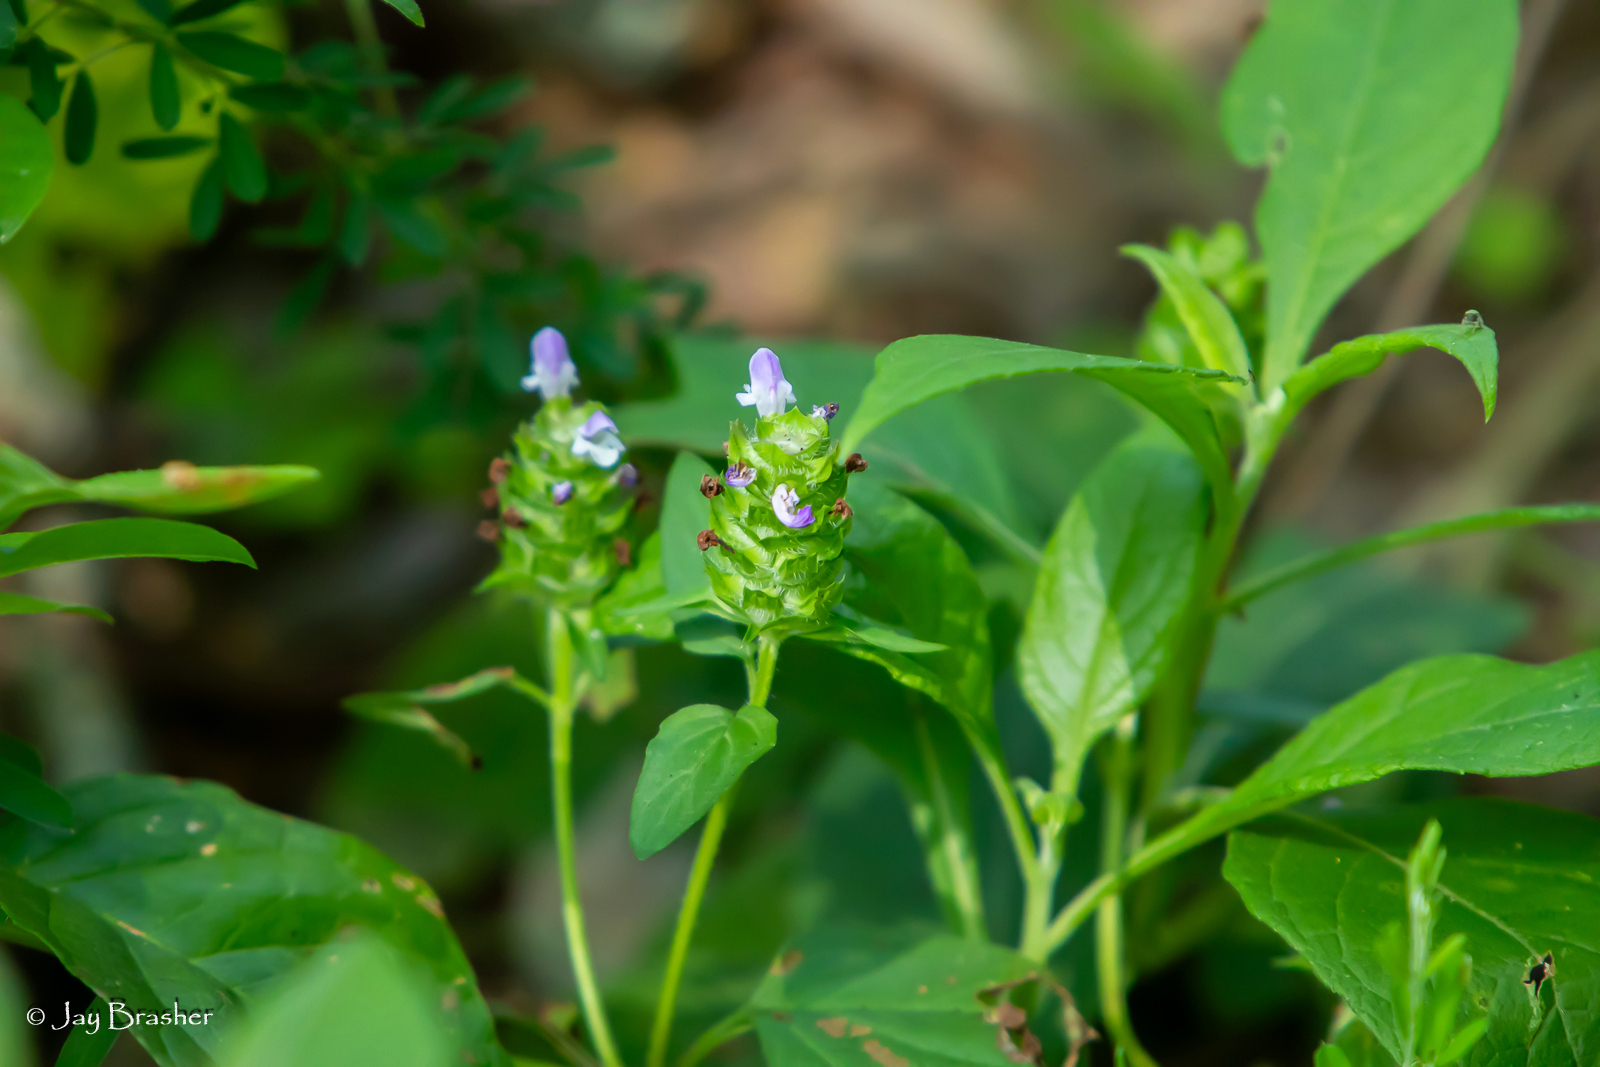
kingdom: Plantae
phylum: Tracheophyta
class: Magnoliopsida
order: Lamiales
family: Lamiaceae
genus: Prunella
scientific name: Prunella vulgaris
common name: Heal-all
